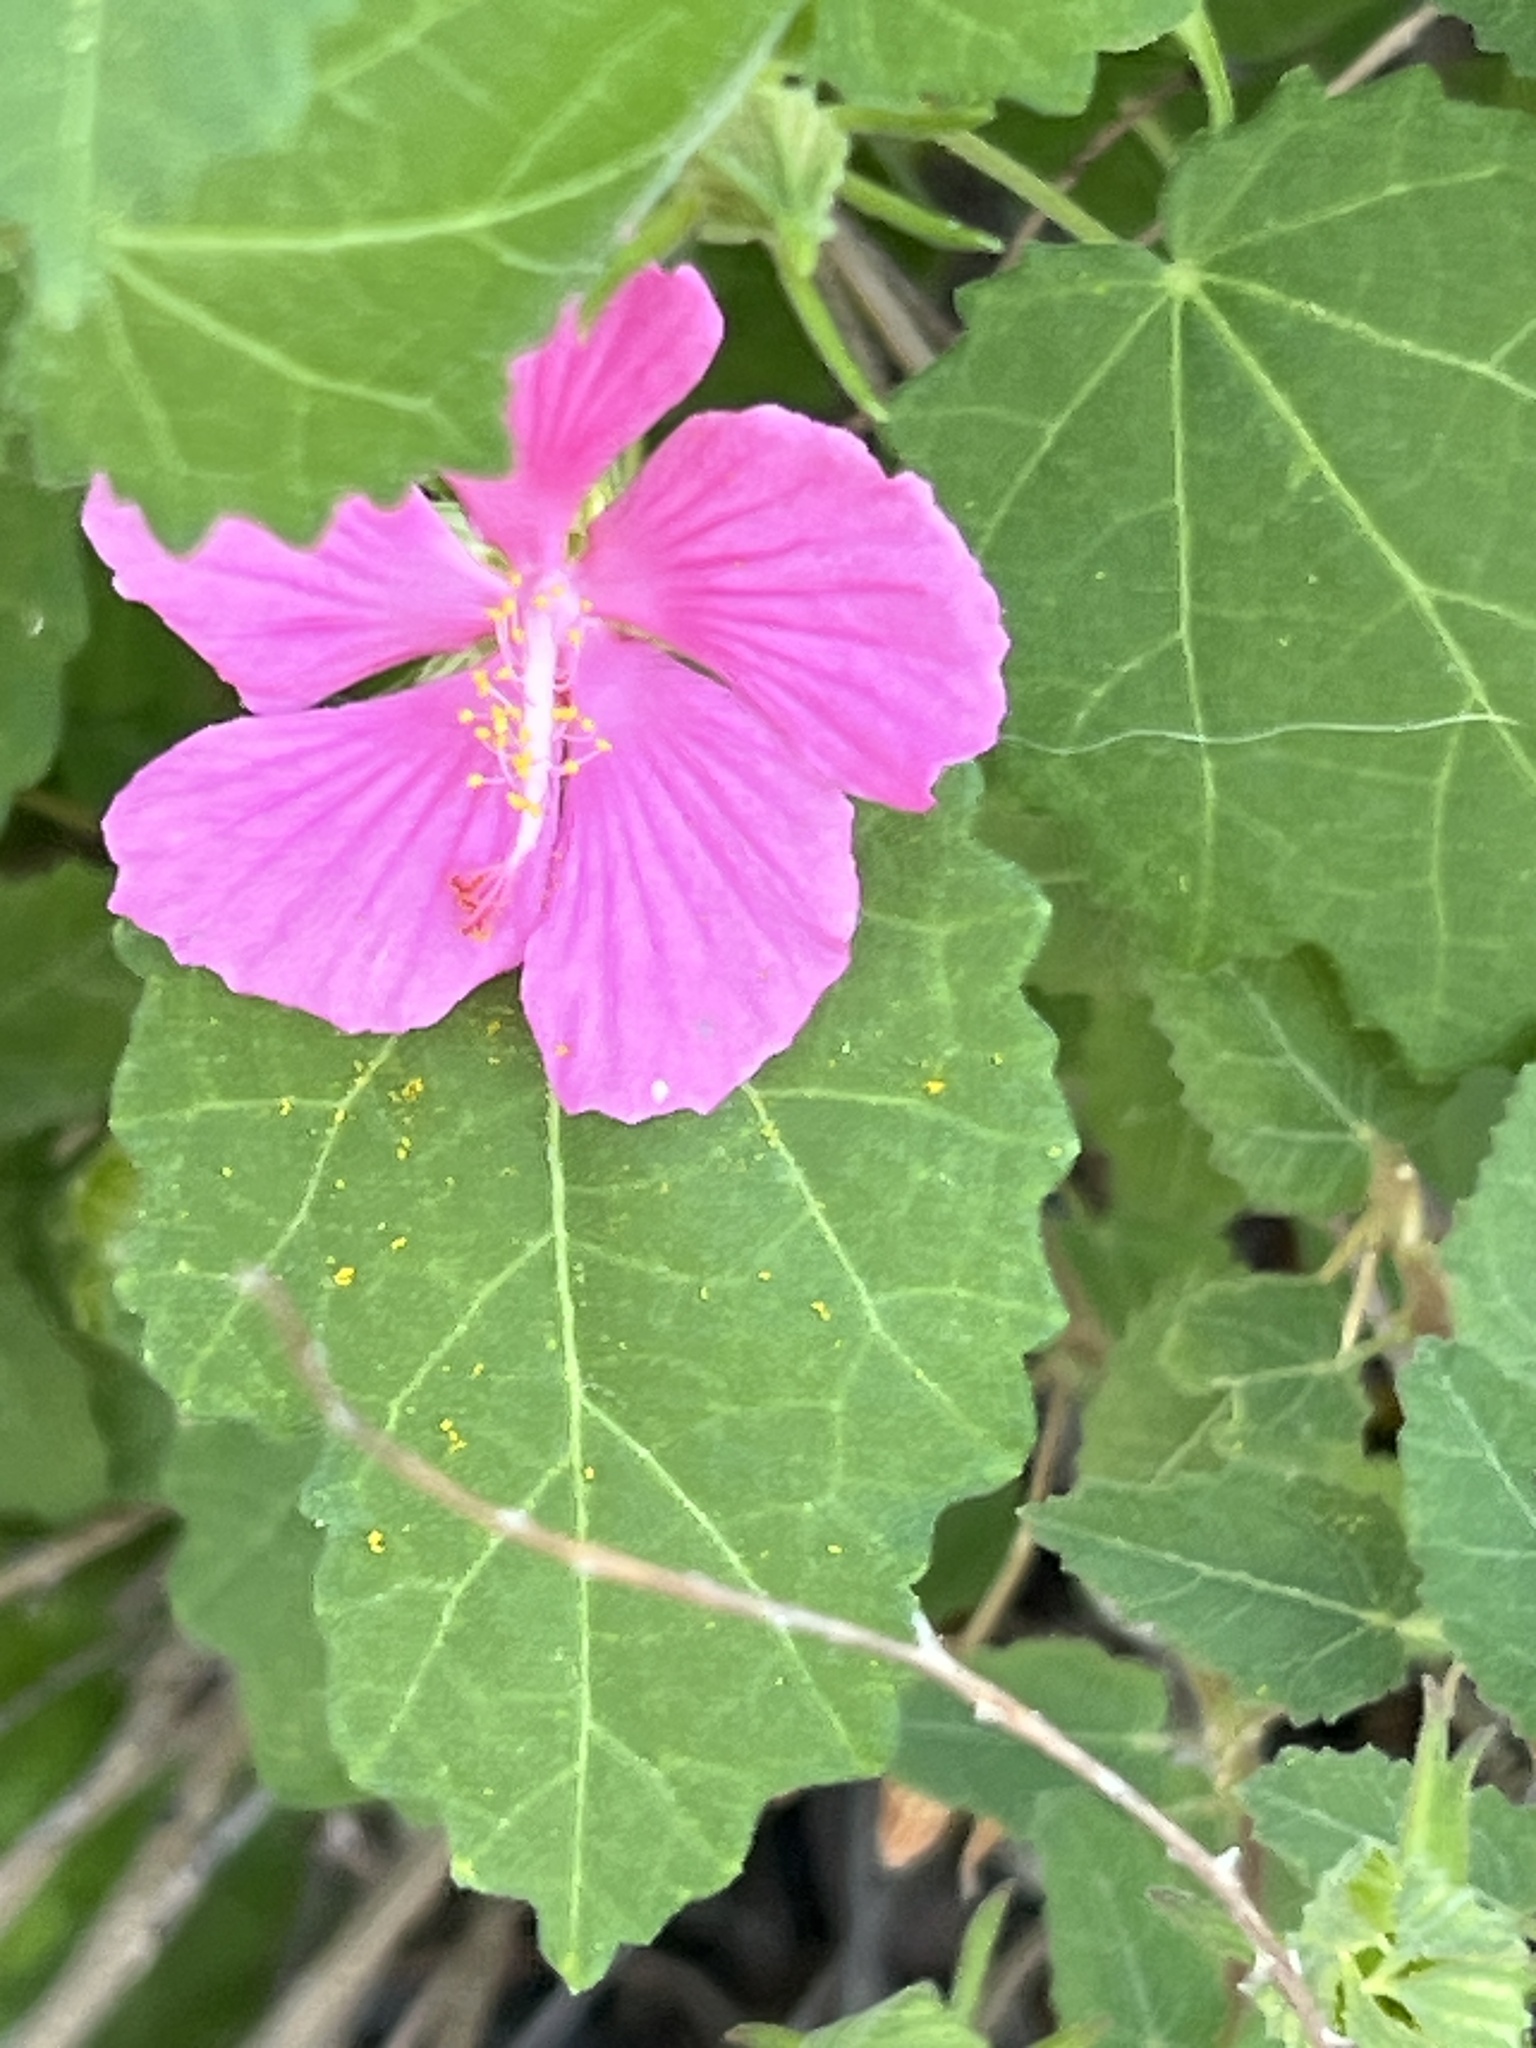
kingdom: Plantae
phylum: Tracheophyta
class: Magnoliopsida
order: Malvales
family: Malvaceae
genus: Pavonia
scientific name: Pavonia lasiopetala
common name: Texas swamp-mallow
